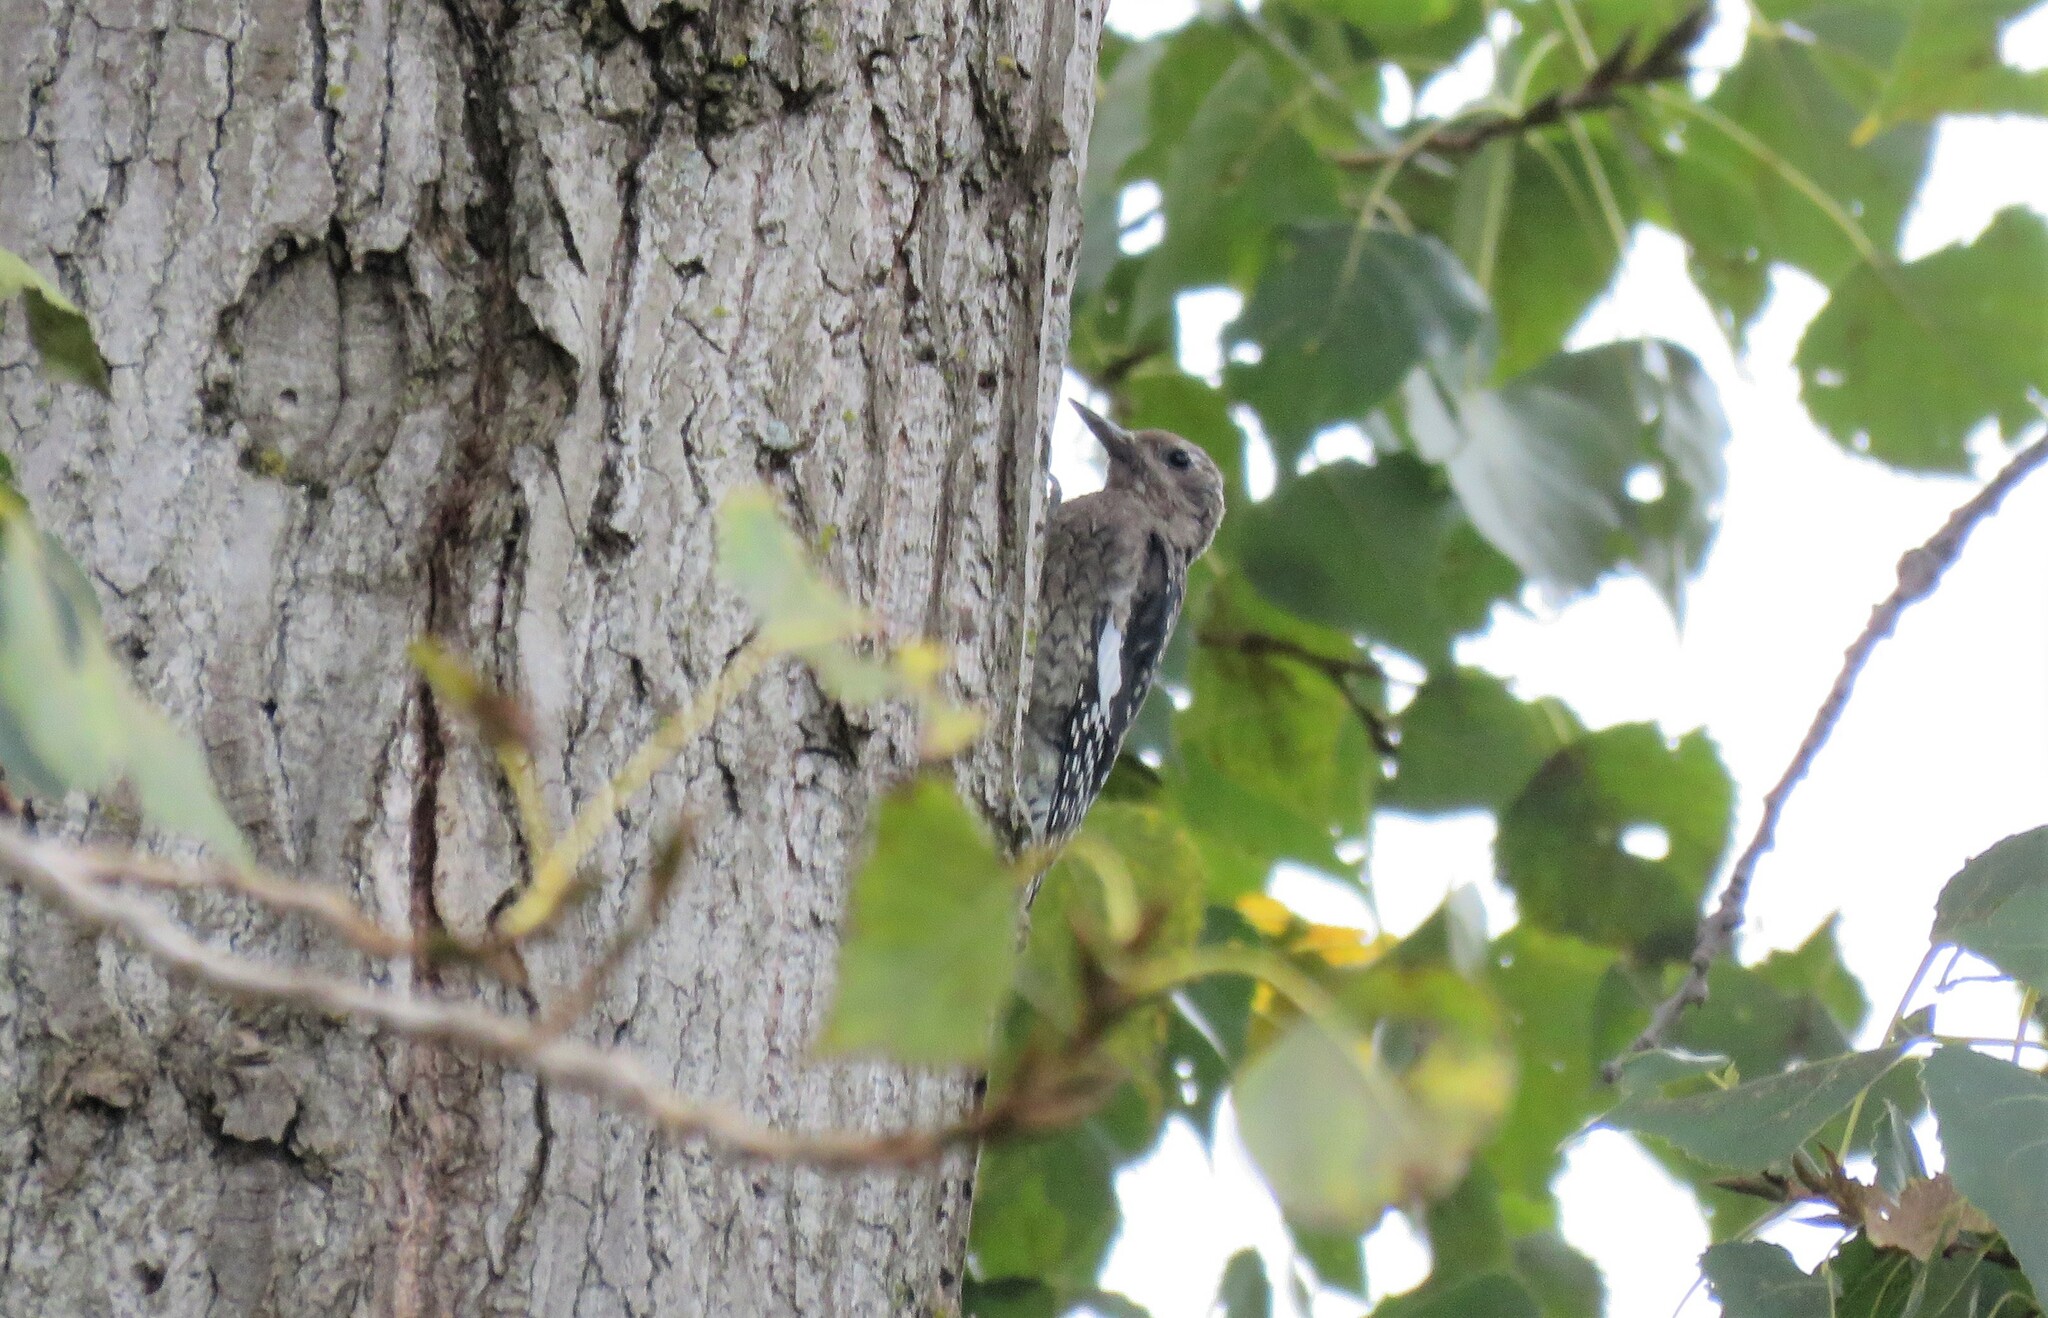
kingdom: Animalia
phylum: Chordata
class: Aves
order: Piciformes
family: Picidae
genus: Sphyrapicus
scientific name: Sphyrapicus varius
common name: Yellow-bellied sapsucker
